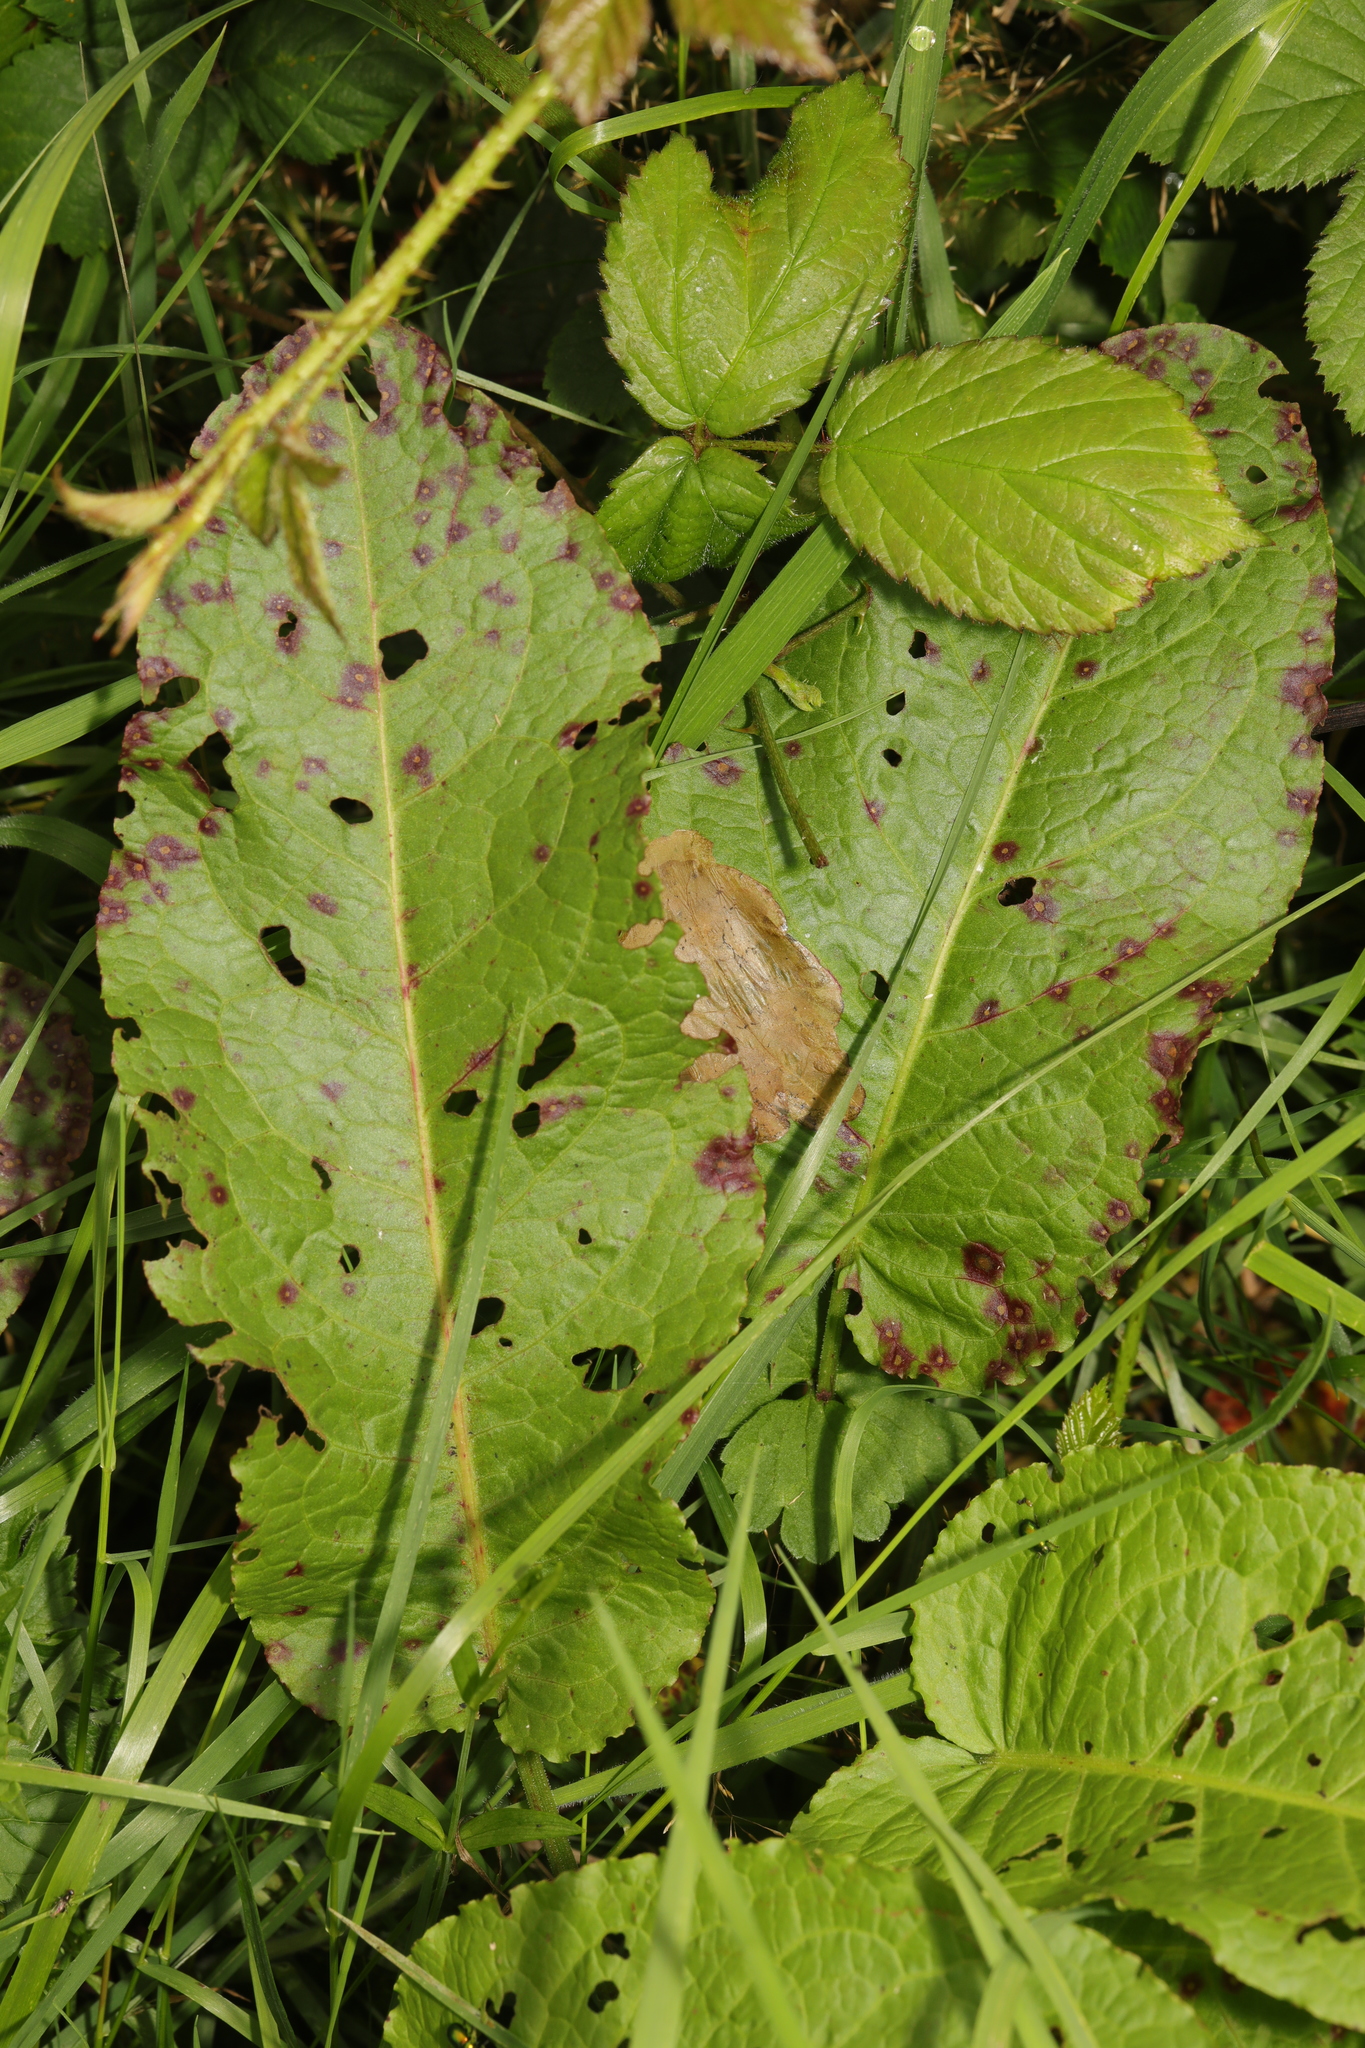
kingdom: Plantae
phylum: Tracheophyta
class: Magnoliopsida
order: Caryophyllales
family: Polygonaceae
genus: Rumex
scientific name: Rumex obtusifolius
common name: Bitter dock
